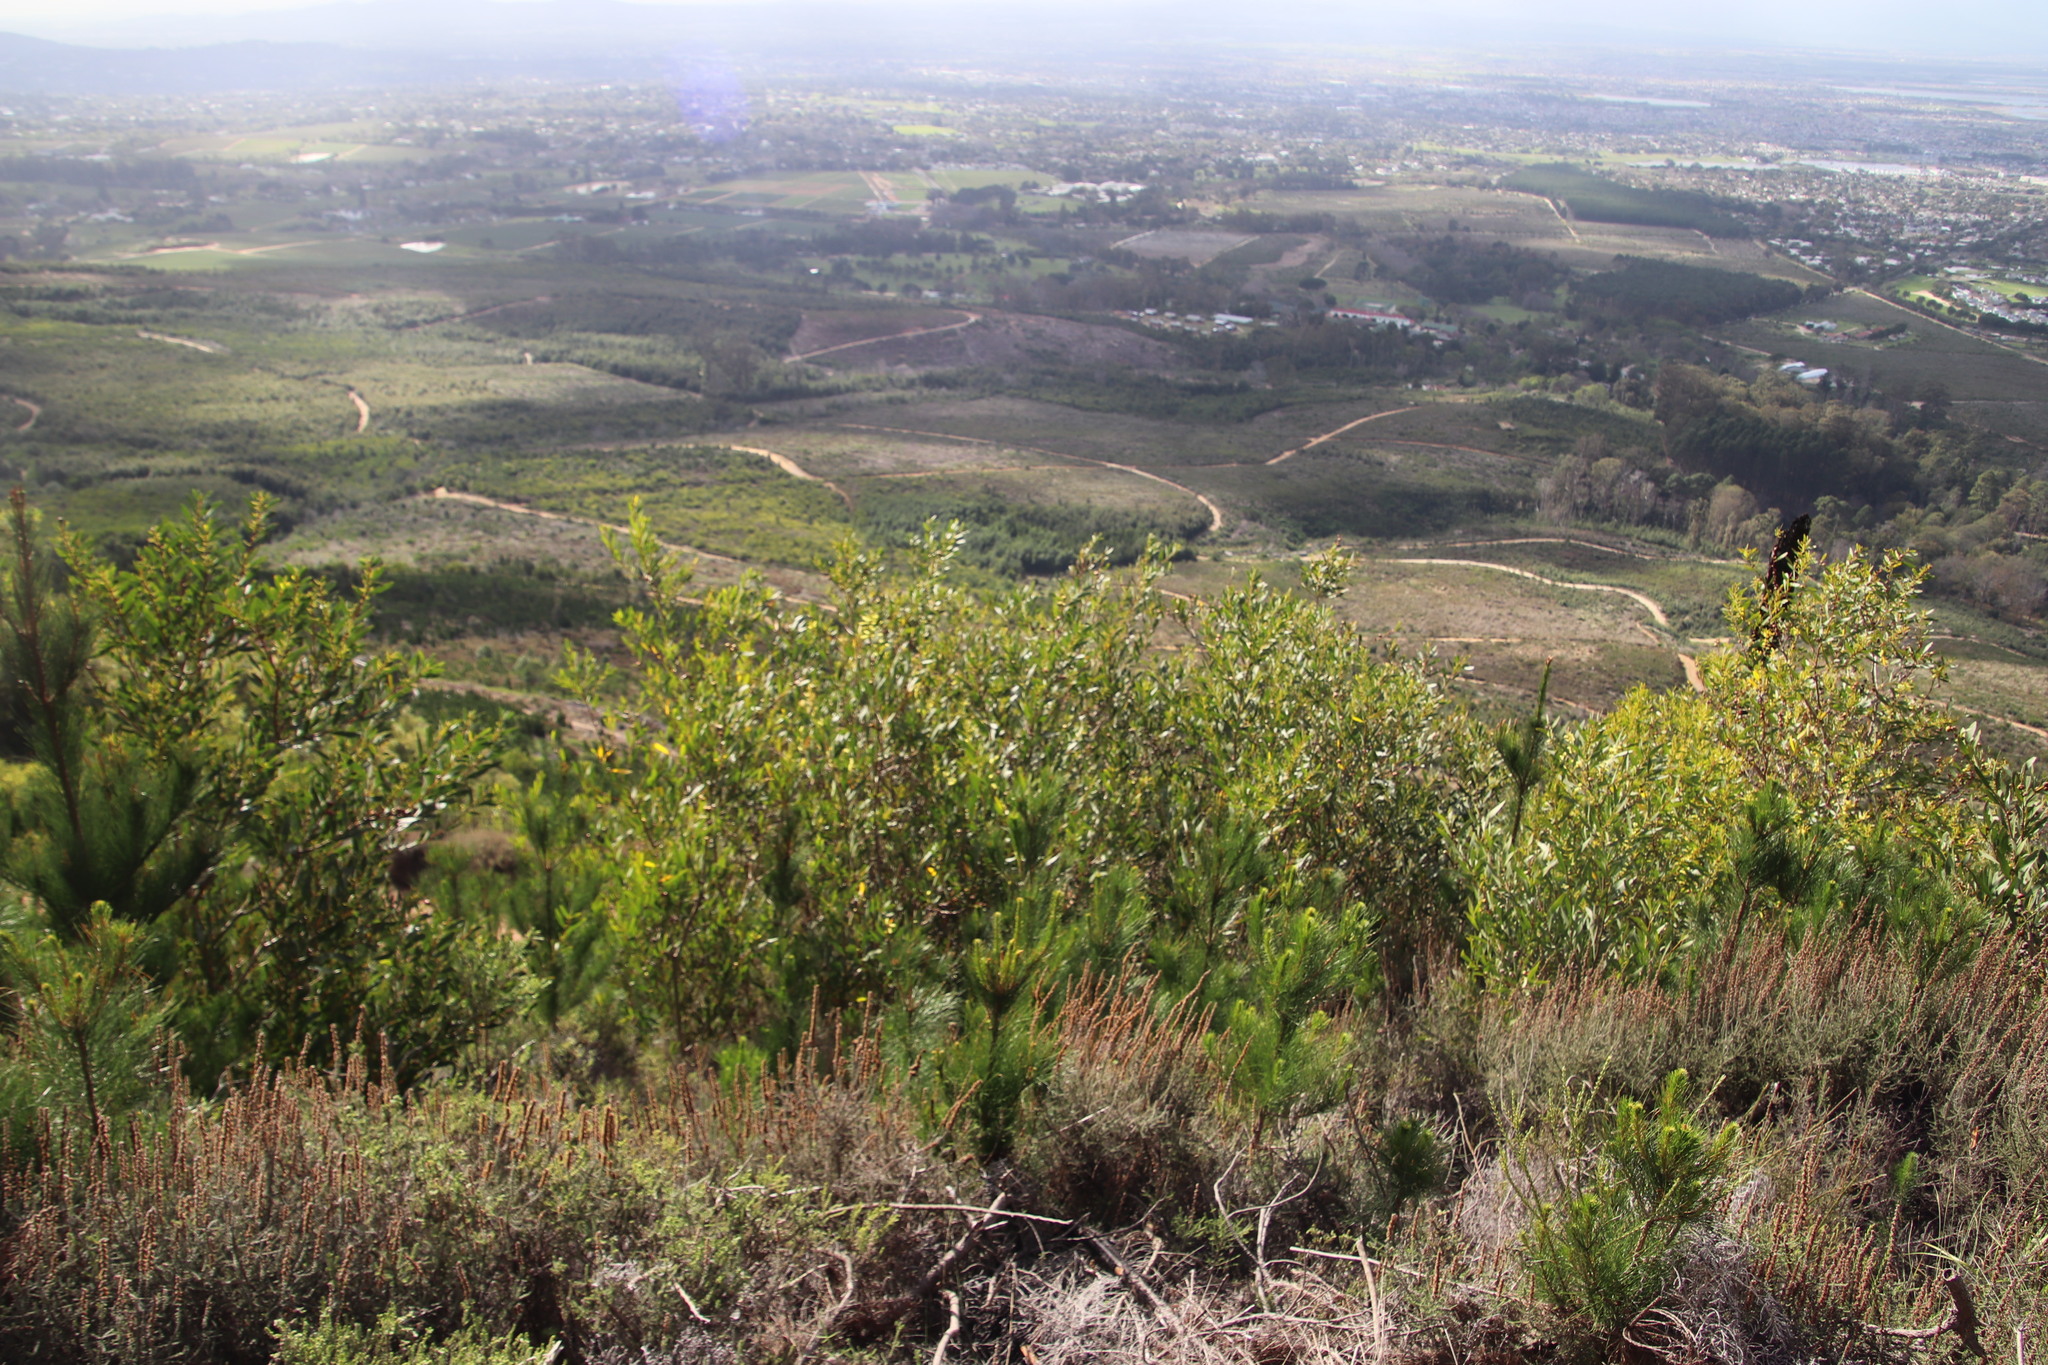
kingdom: Plantae
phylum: Tracheophyta
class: Magnoliopsida
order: Fabales
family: Fabaceae
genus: Acacia
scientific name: Acacia longifolia
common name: Sydney golden wattle
